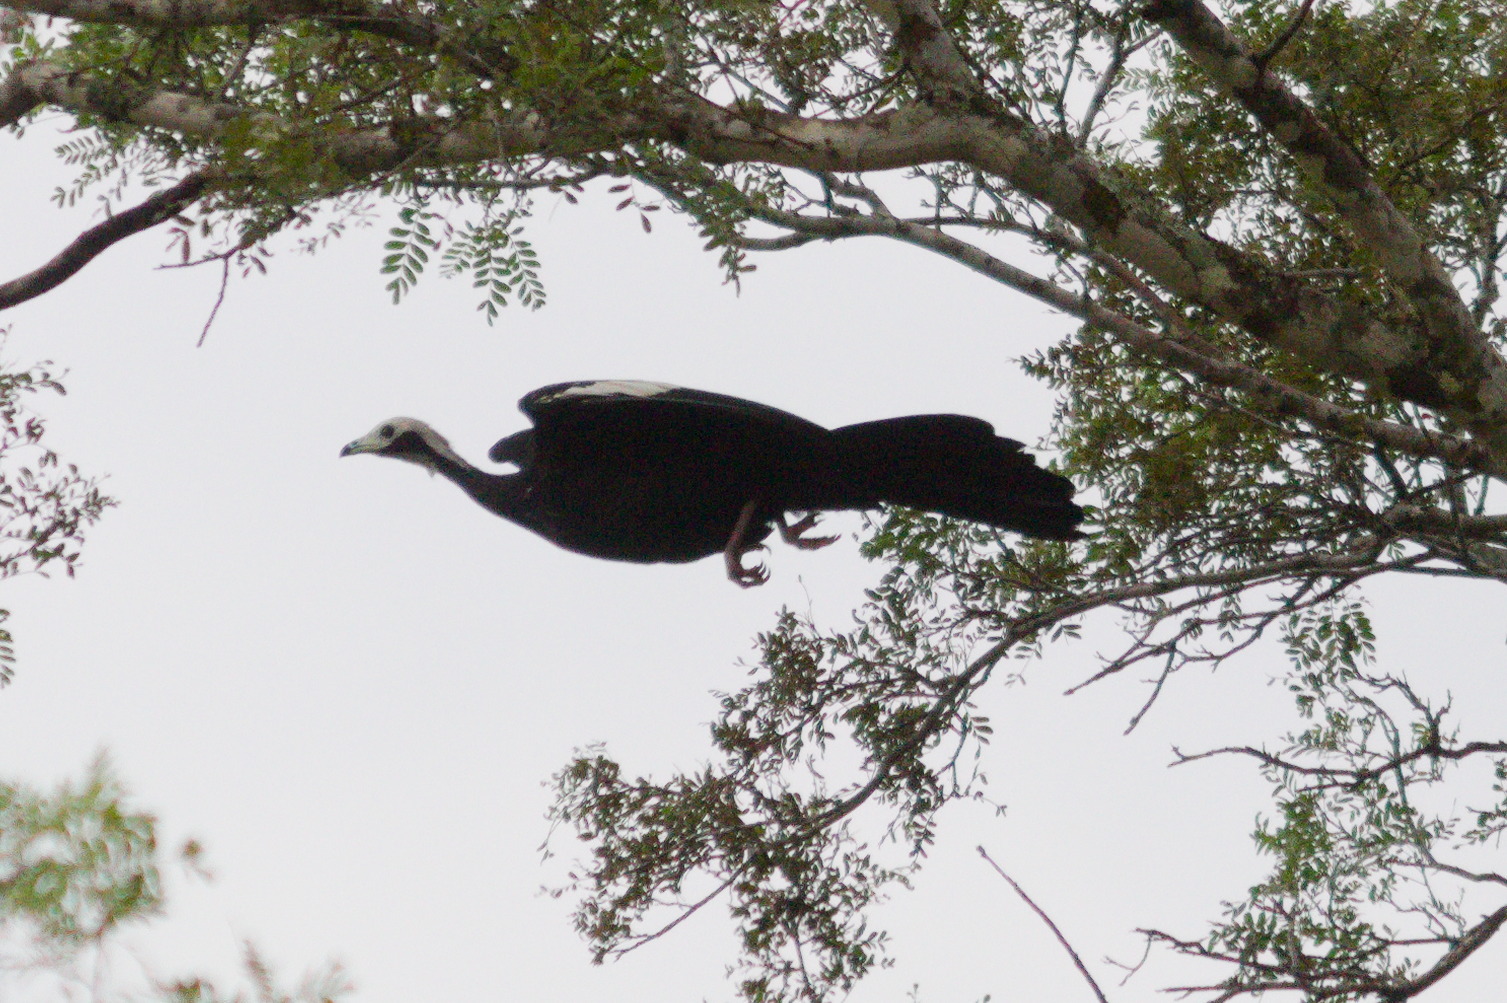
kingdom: Animalia
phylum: Chordata
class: Aves
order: Galliformes
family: Cracidae
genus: Pipile
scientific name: Pipile cumanensis
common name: Blue-throated piping-guan
